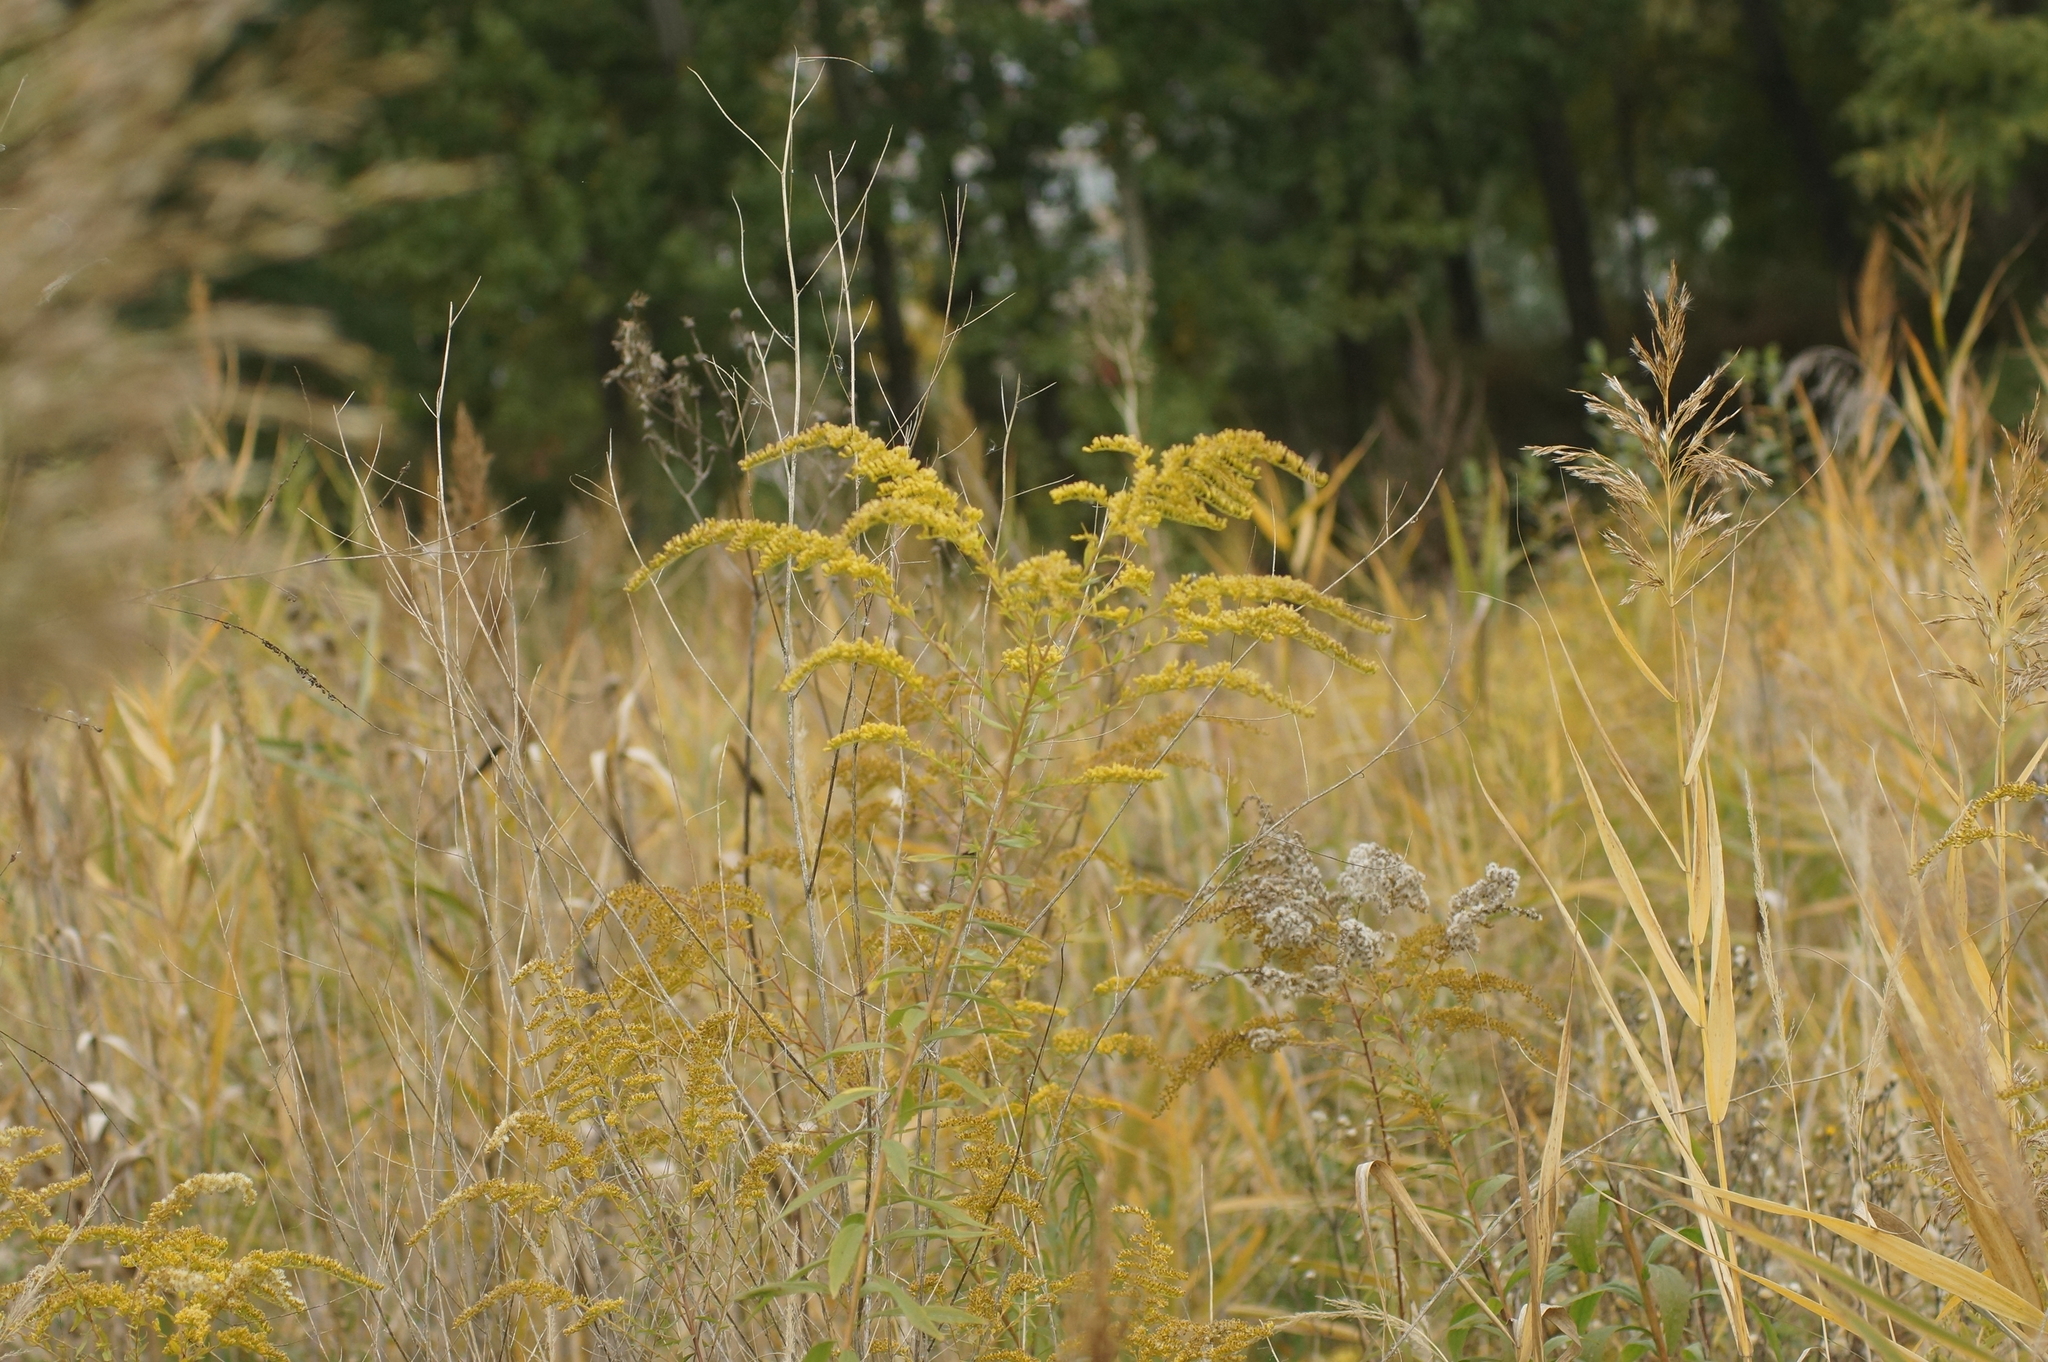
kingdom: Plantae
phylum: Tracheophyta
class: Magnoliopsida
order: Asterales
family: Asteraceae
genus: Solidago
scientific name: Solidago canadensis
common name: Canada goldenrod
